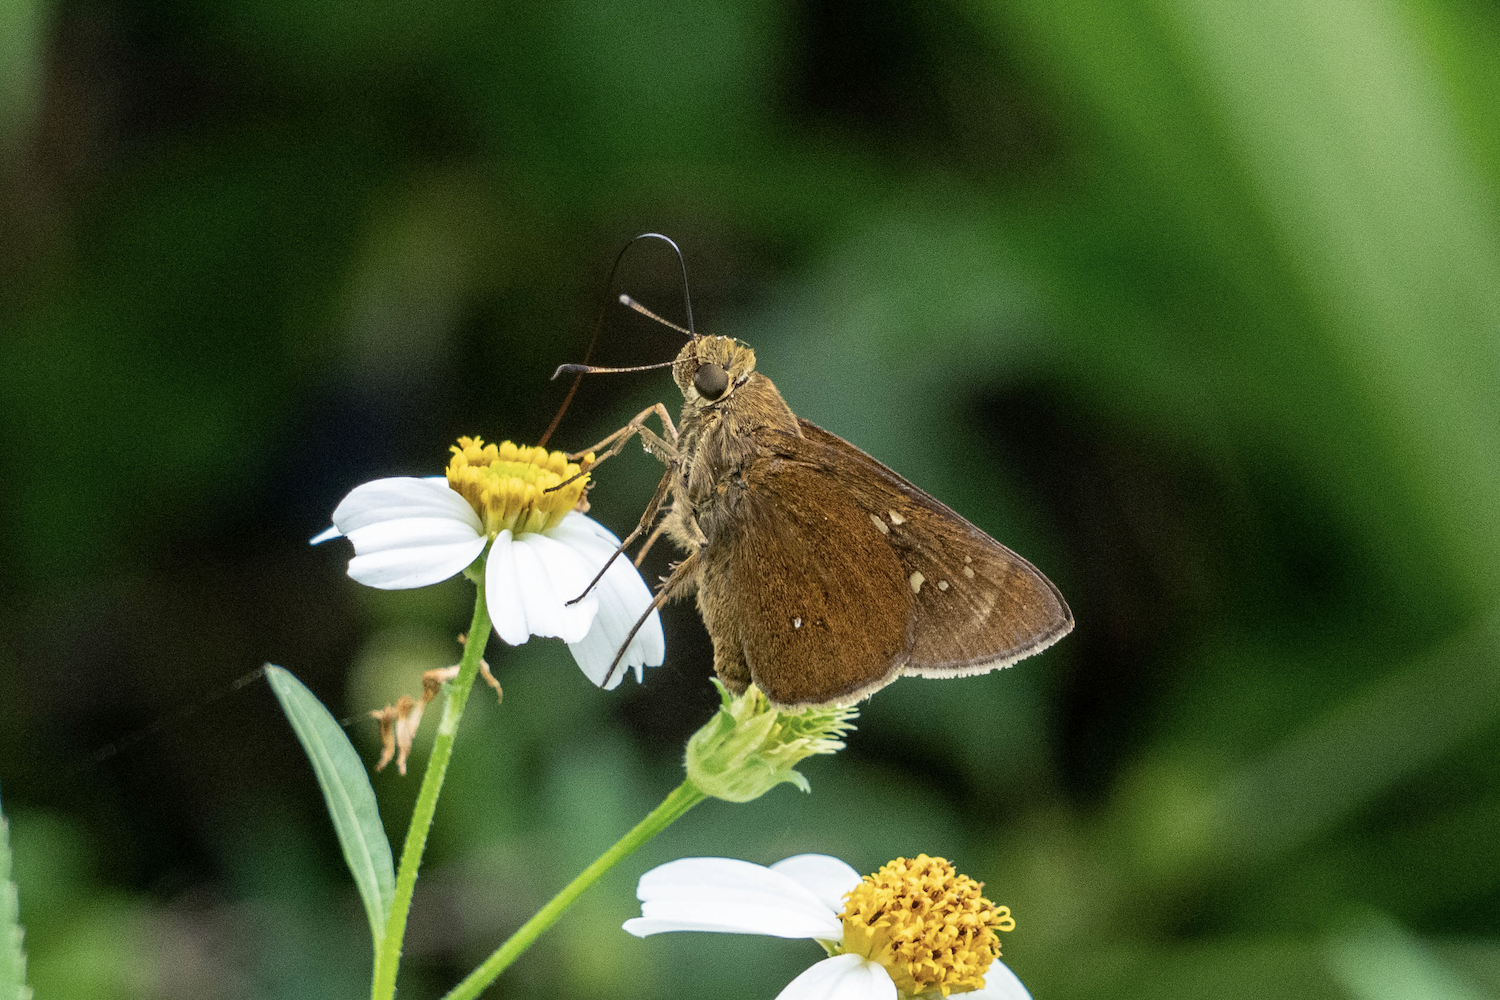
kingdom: Animalia
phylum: Arthropoda
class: Insecta
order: Lepidoptera
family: Hesperiidae
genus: Caltoris
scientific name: Caltoris bromus
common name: Colon swift
